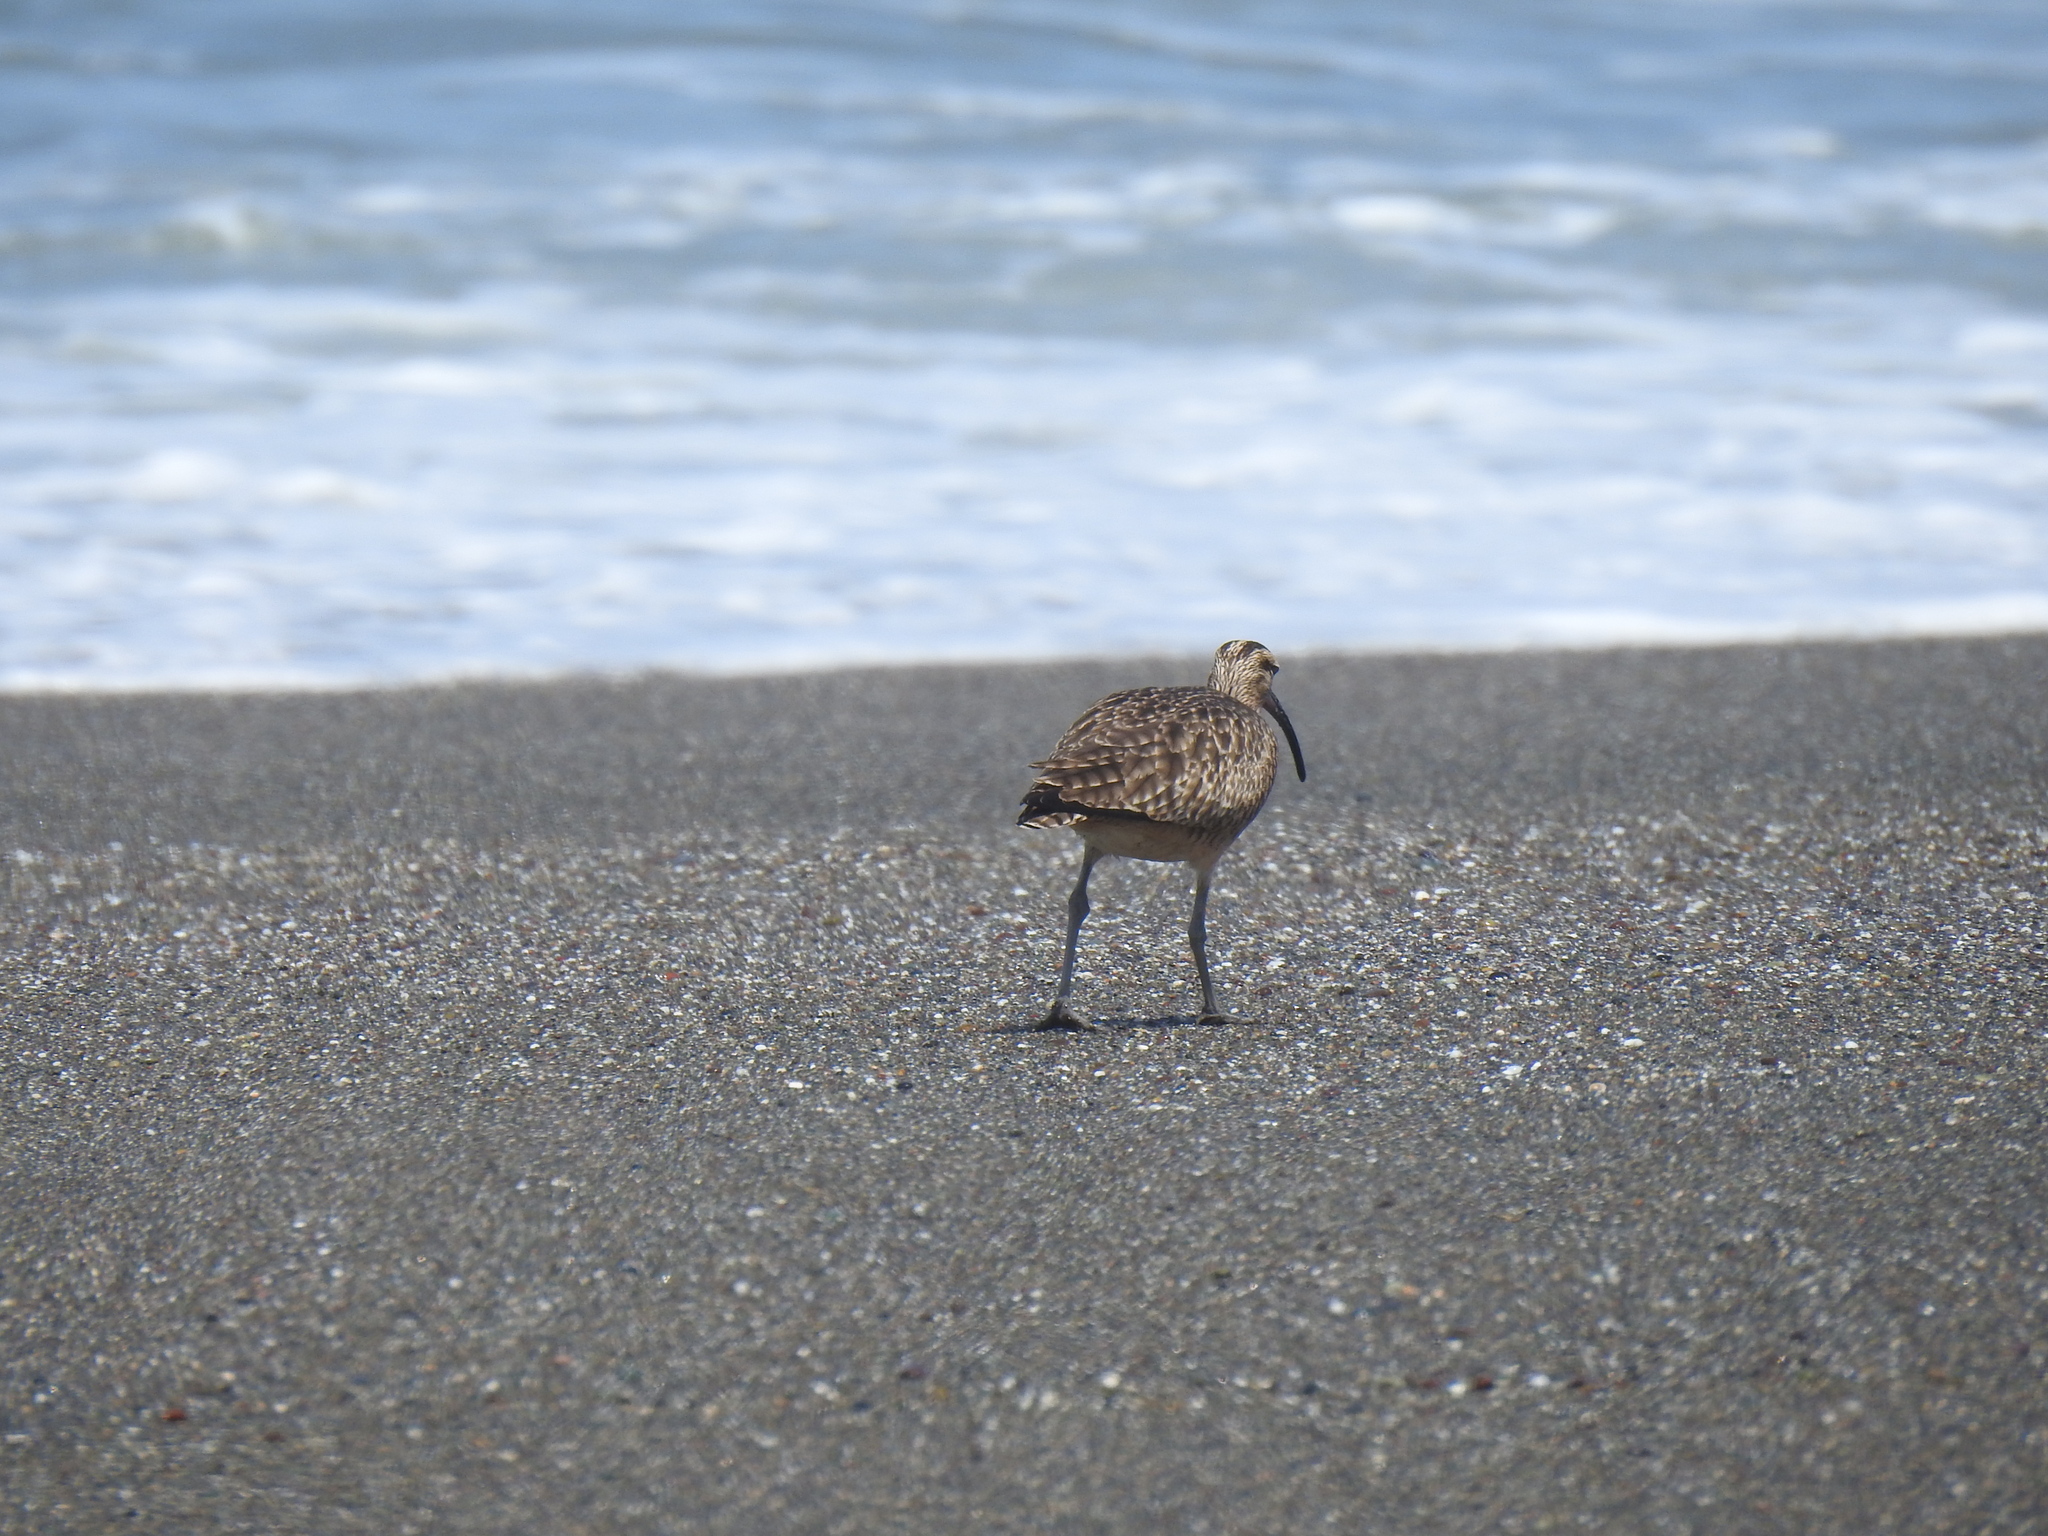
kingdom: Animalia
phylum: Chordata
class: Aves
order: Charadriiformes
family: Scolopacidae
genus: Numenius
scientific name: Numenius phaeopus
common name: Whimbrel
